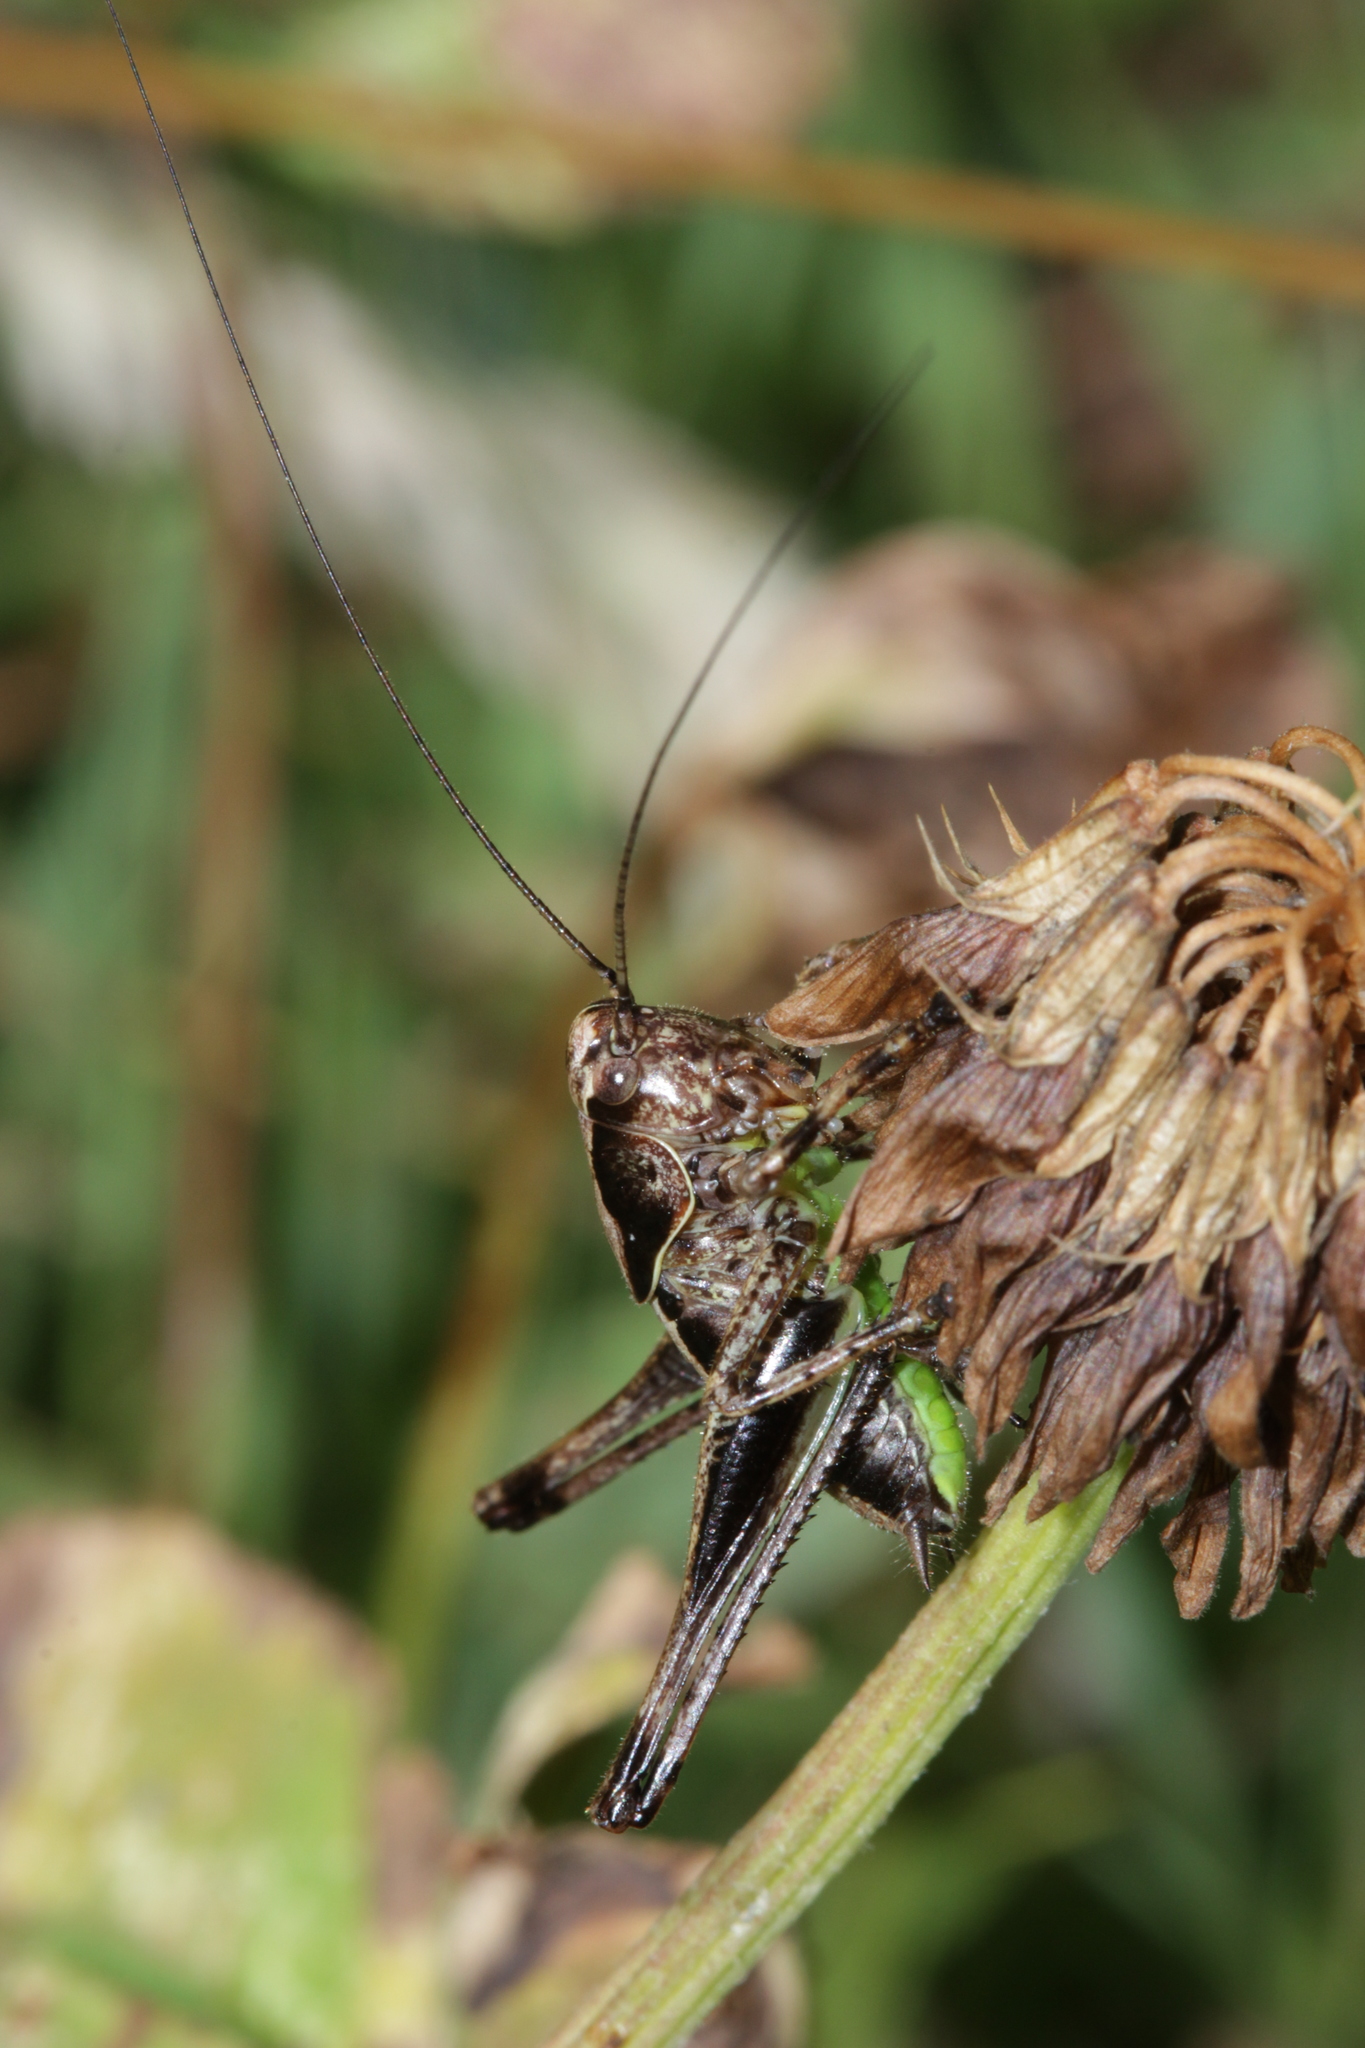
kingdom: Animalia
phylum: Arthropoda
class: Insecta
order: Orthoptera
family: Tettigoniidae
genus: Pholidoptera
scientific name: Pholidoptera griseoaptera
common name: Dark bush-cricket
